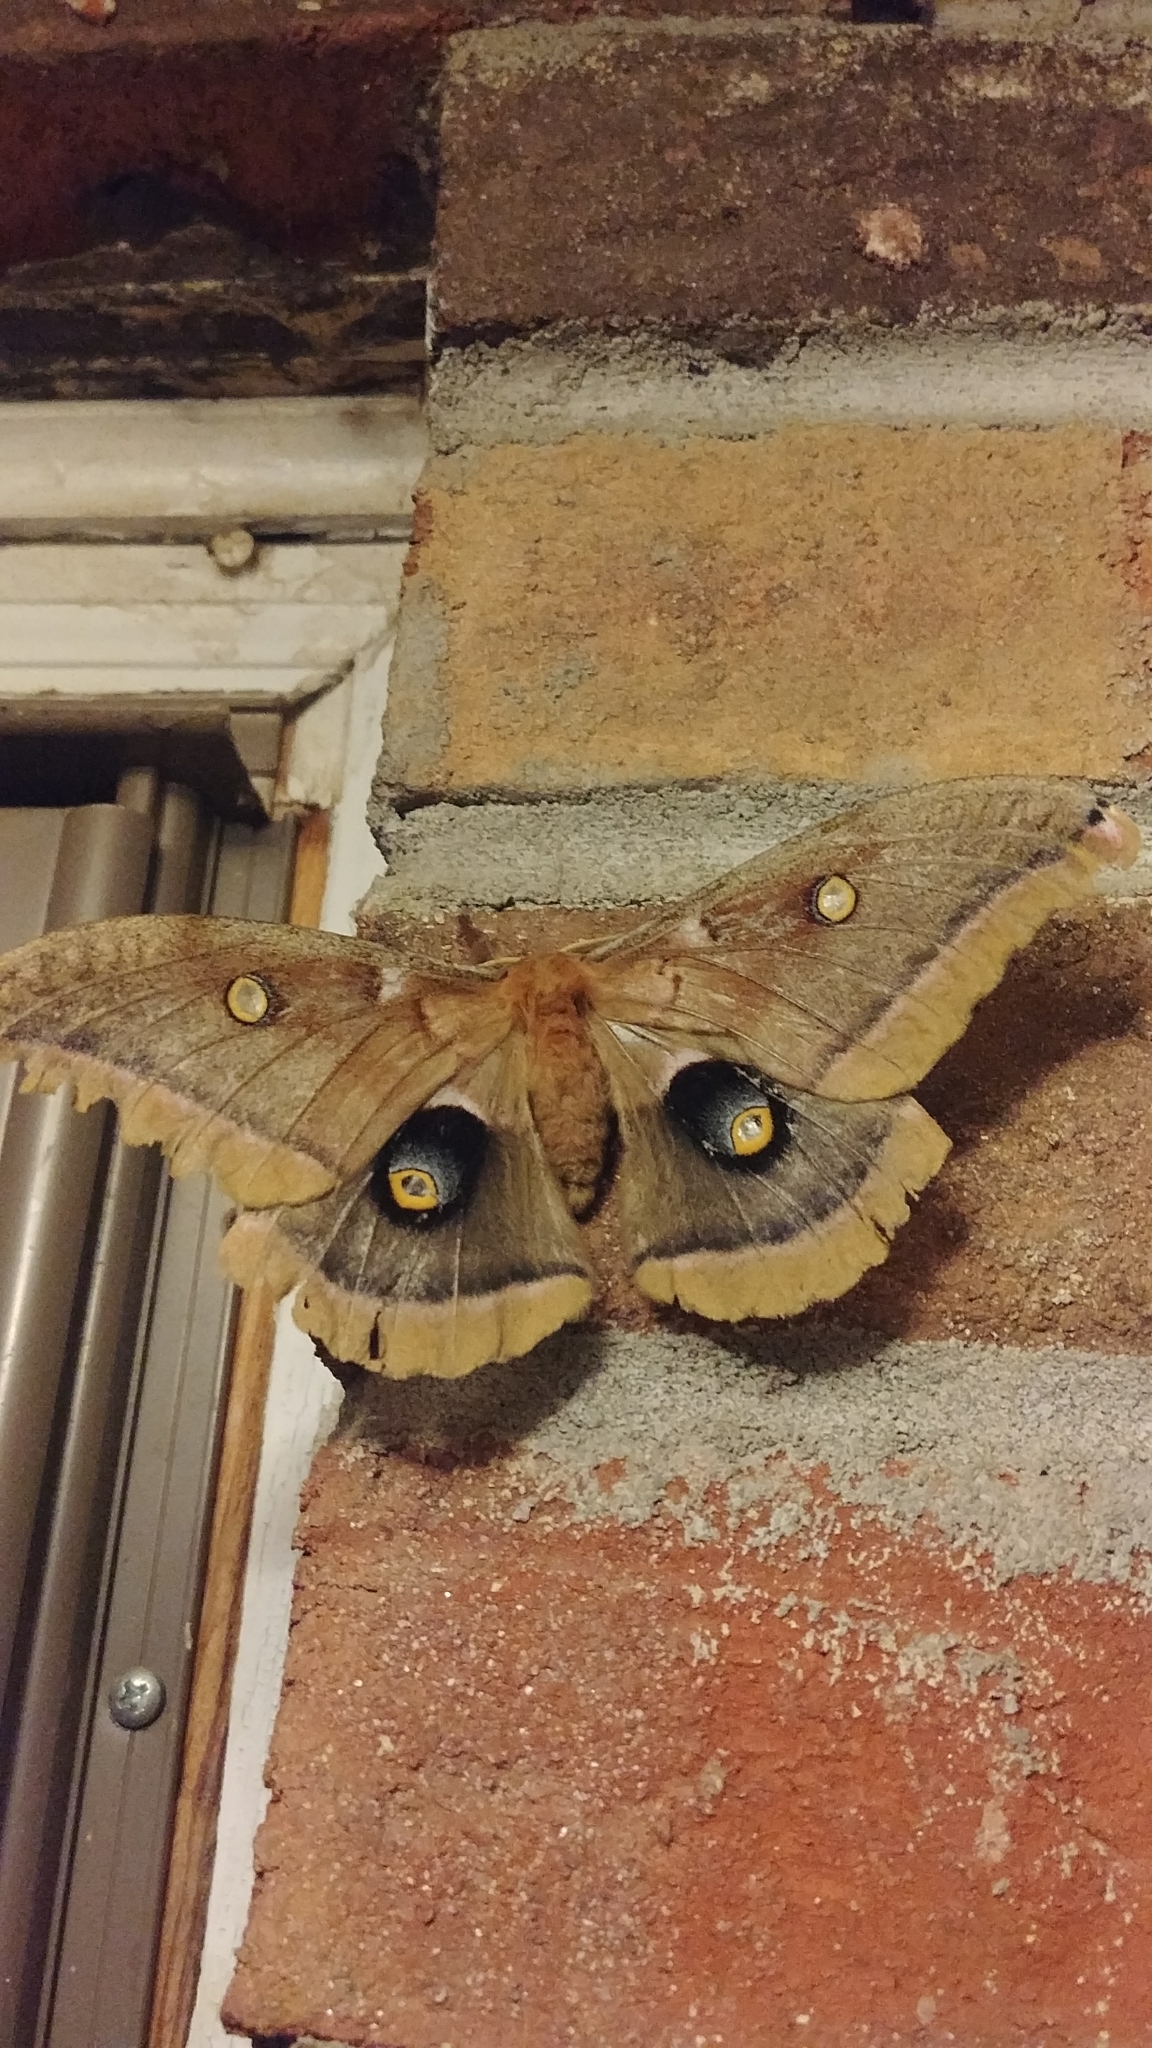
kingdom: Animalia
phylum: Arthropoda
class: Insecta
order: Lepidoptera
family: Saturniidae
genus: Antheraea
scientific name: Antheraea polyphemus
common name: Polyphemus moth
